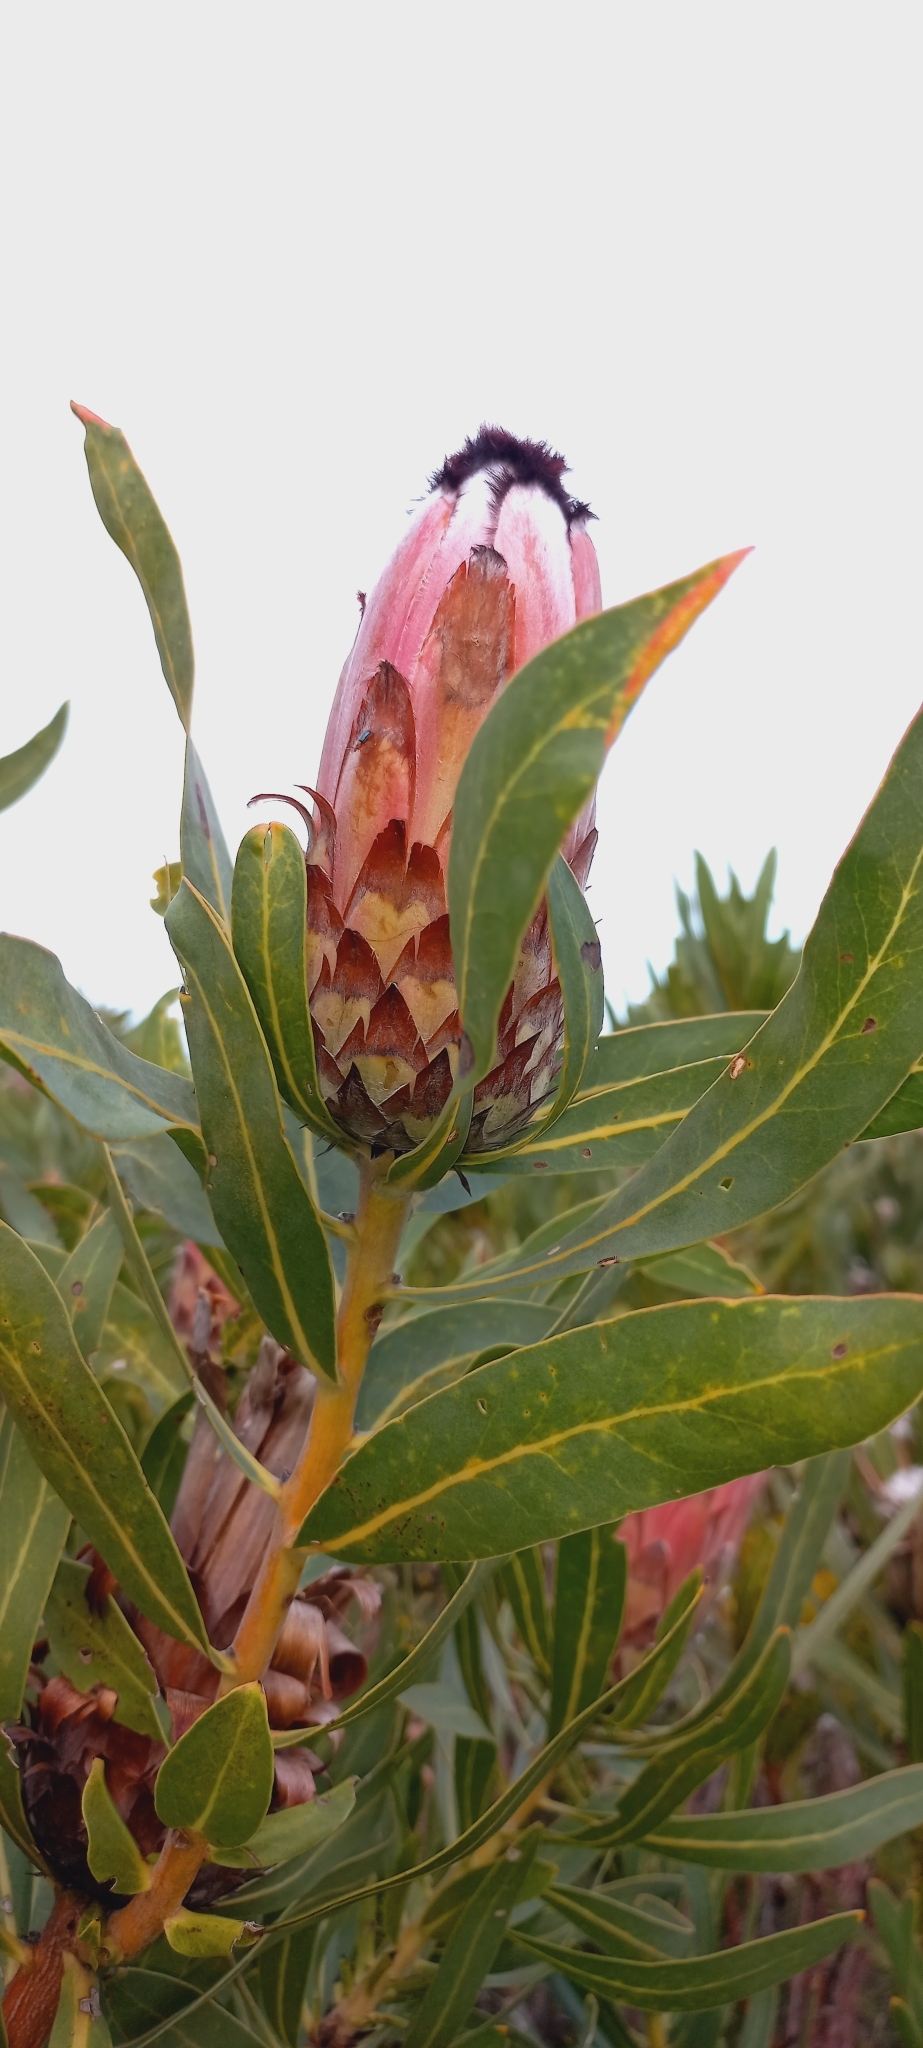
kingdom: Plantae
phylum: Tracheophyta
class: Magnoliopsida
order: Proteales
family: Proteaceae
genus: Protea
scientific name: Protea neriifolia
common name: Blue sugarbush
